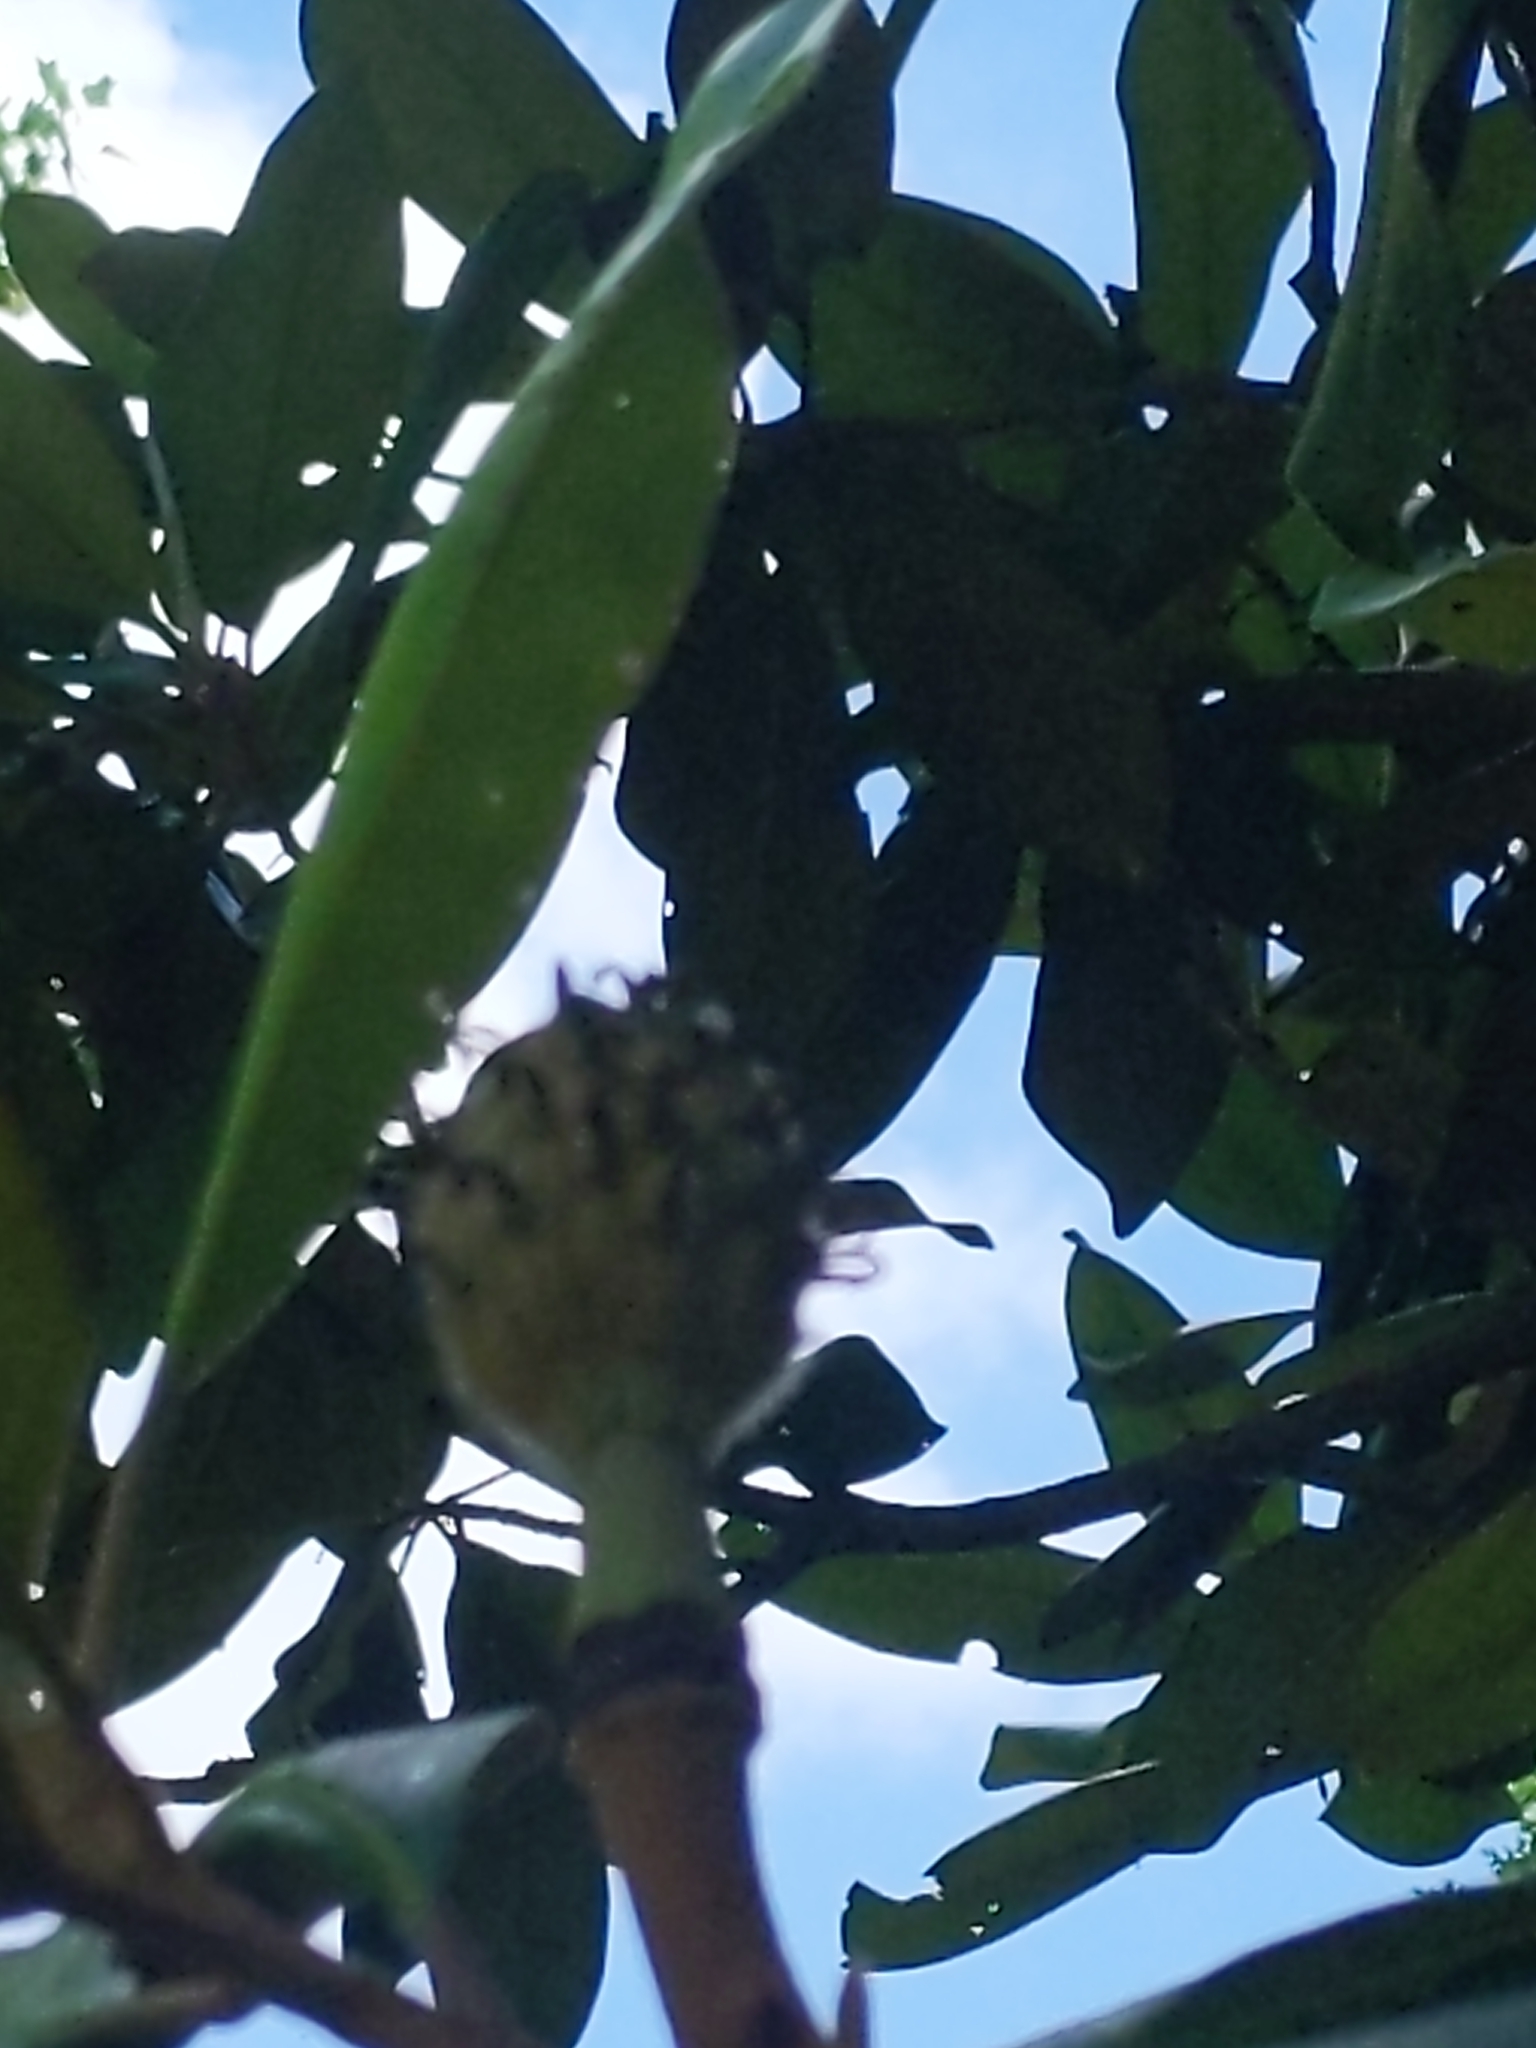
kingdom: Plantae
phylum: Tracheophyta
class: Magnoliopsida
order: Magnoliales
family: Magnoliaceae
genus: Magnolia
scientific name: Magnolia grandiflora
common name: Southern magnolia
